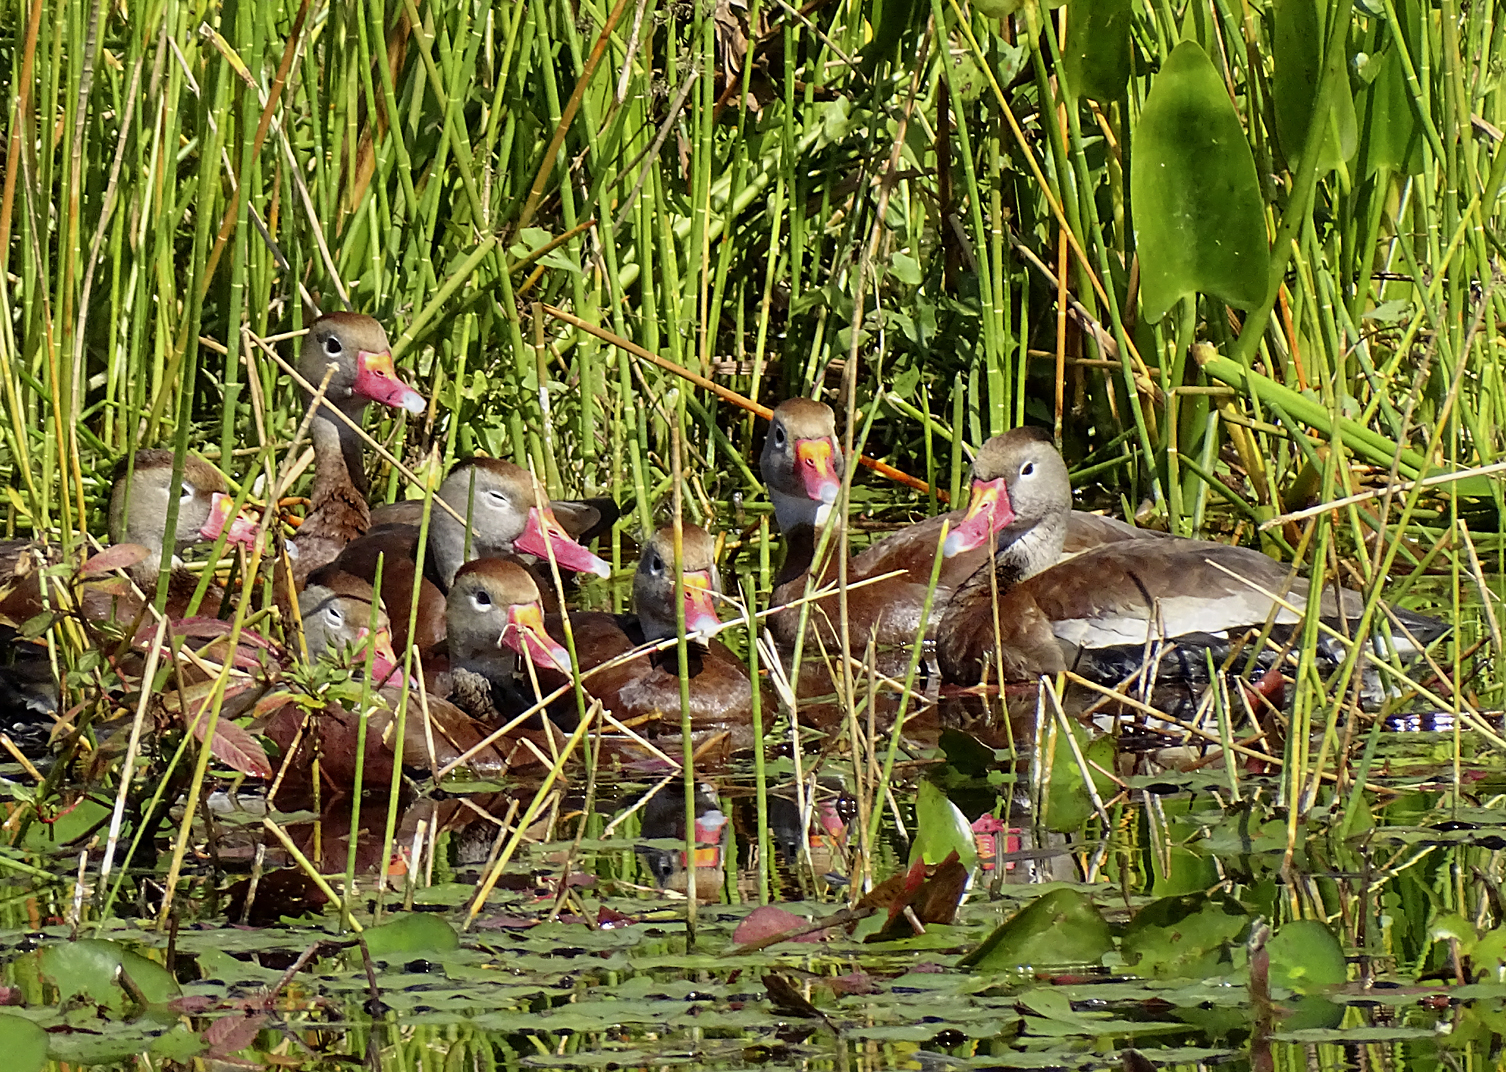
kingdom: Animalia
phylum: Chordata
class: Aves
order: Anseriformes
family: Anatidae
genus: Dendrocygna
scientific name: Dendrocygna autumnalis
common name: Black-bellied whistling duck
